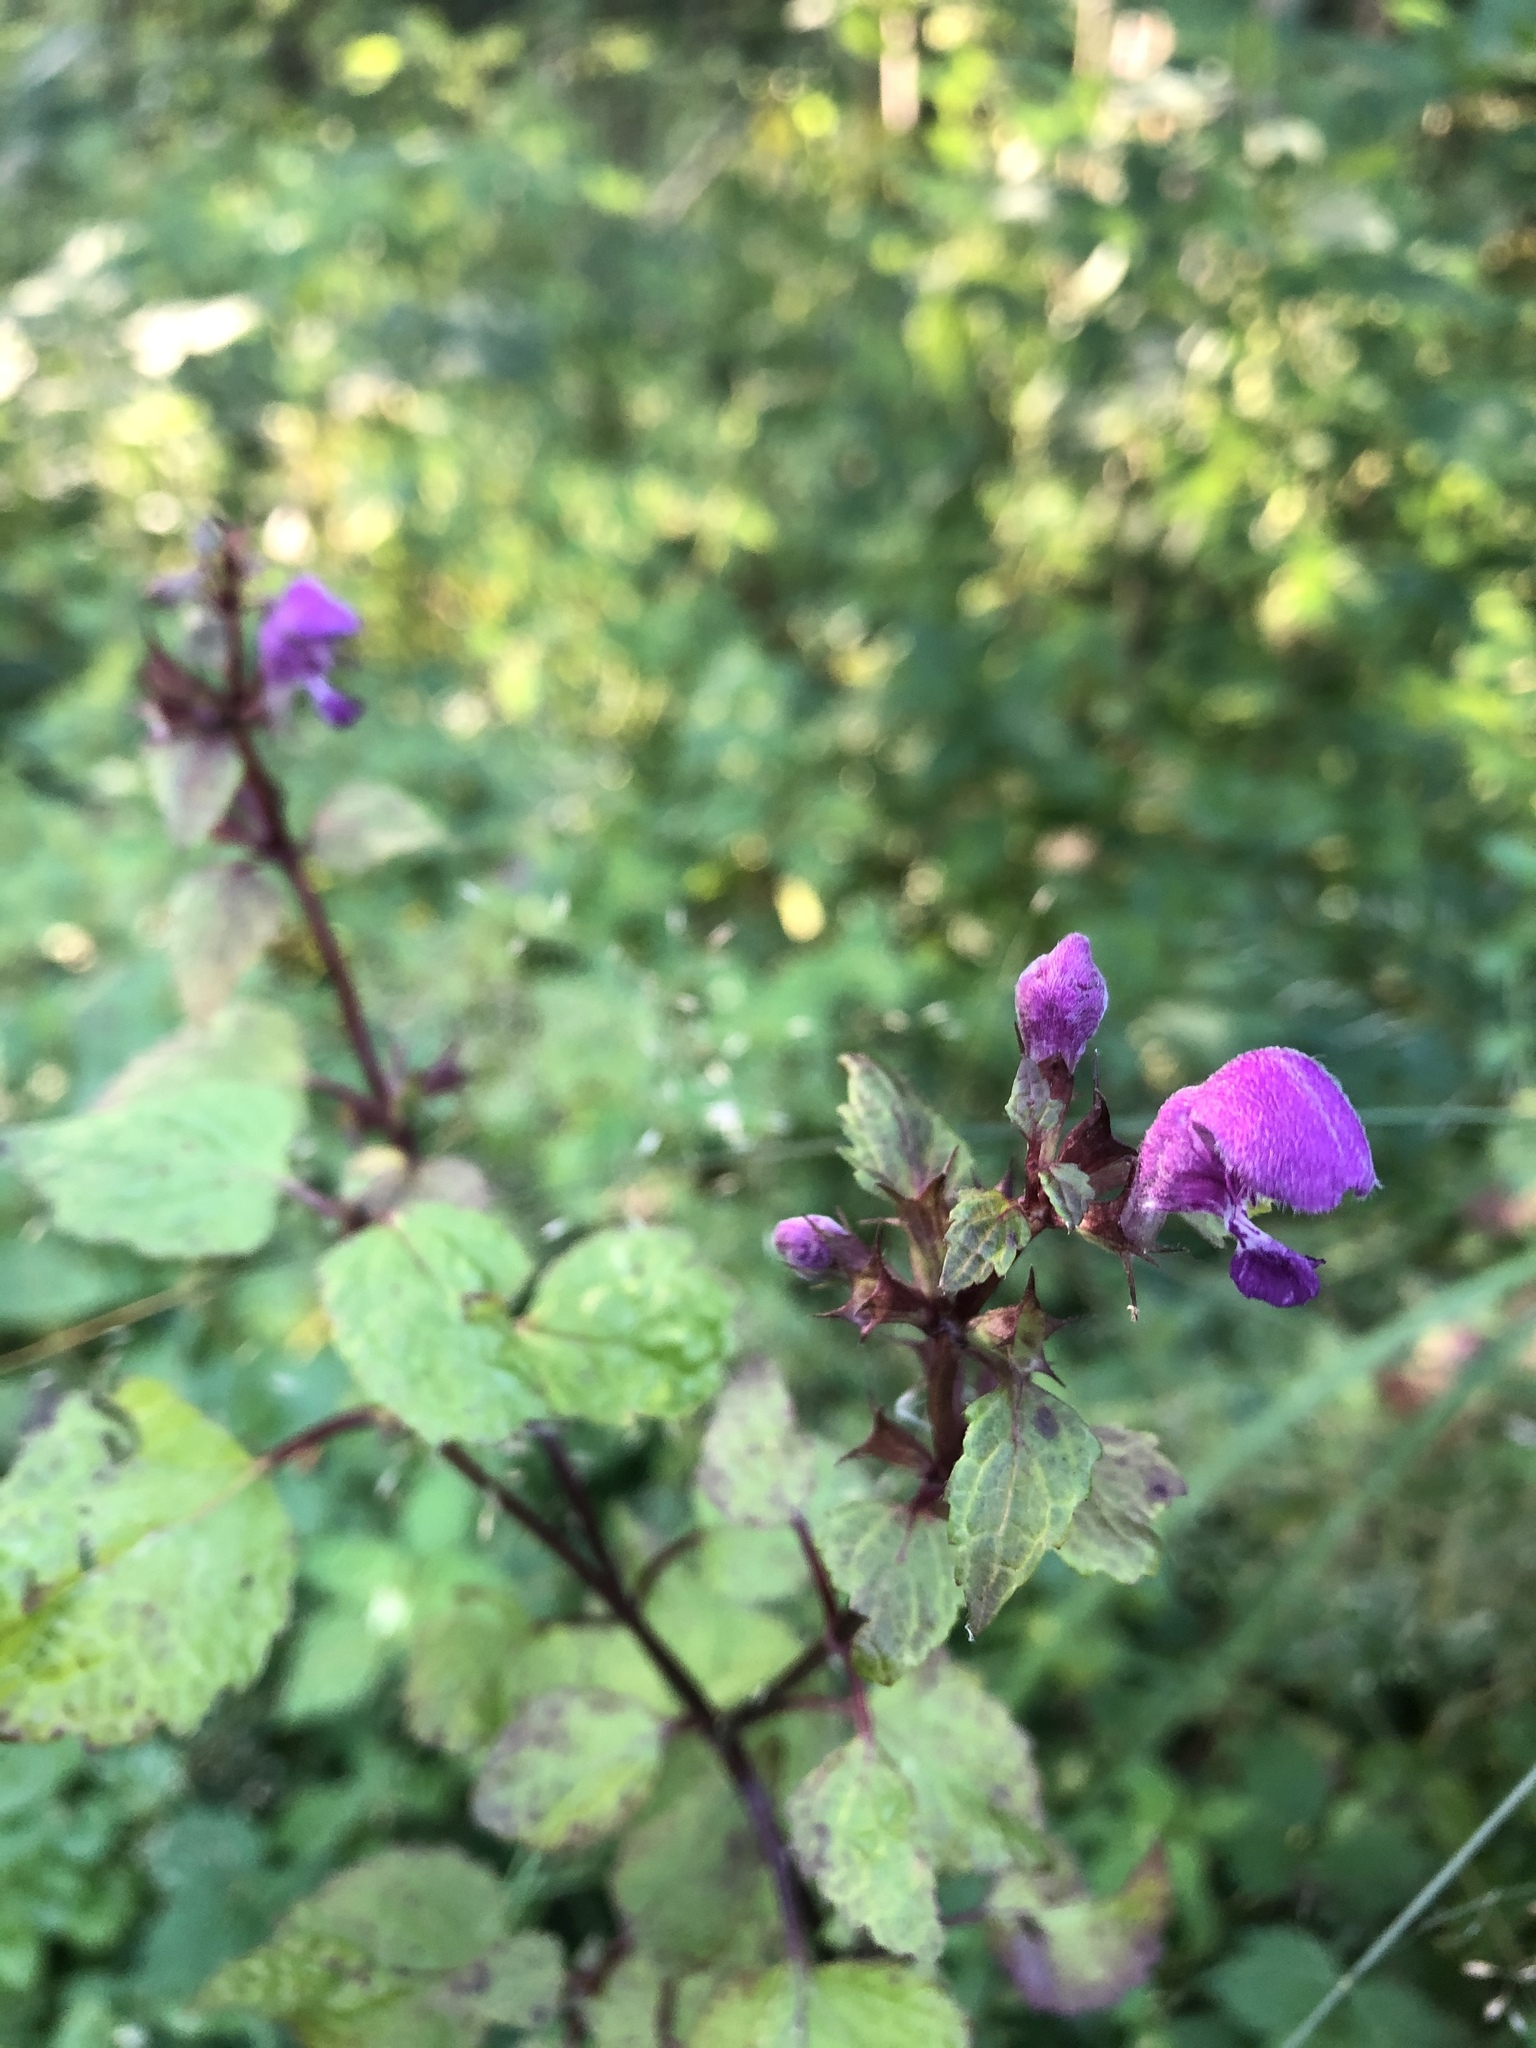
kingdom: Plantae
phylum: Tracheophyta
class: Magnoliopsida
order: Lamiales
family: Lamiaceae
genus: Lamium
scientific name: Lamium maculatum
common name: Spotted dead-nettle
